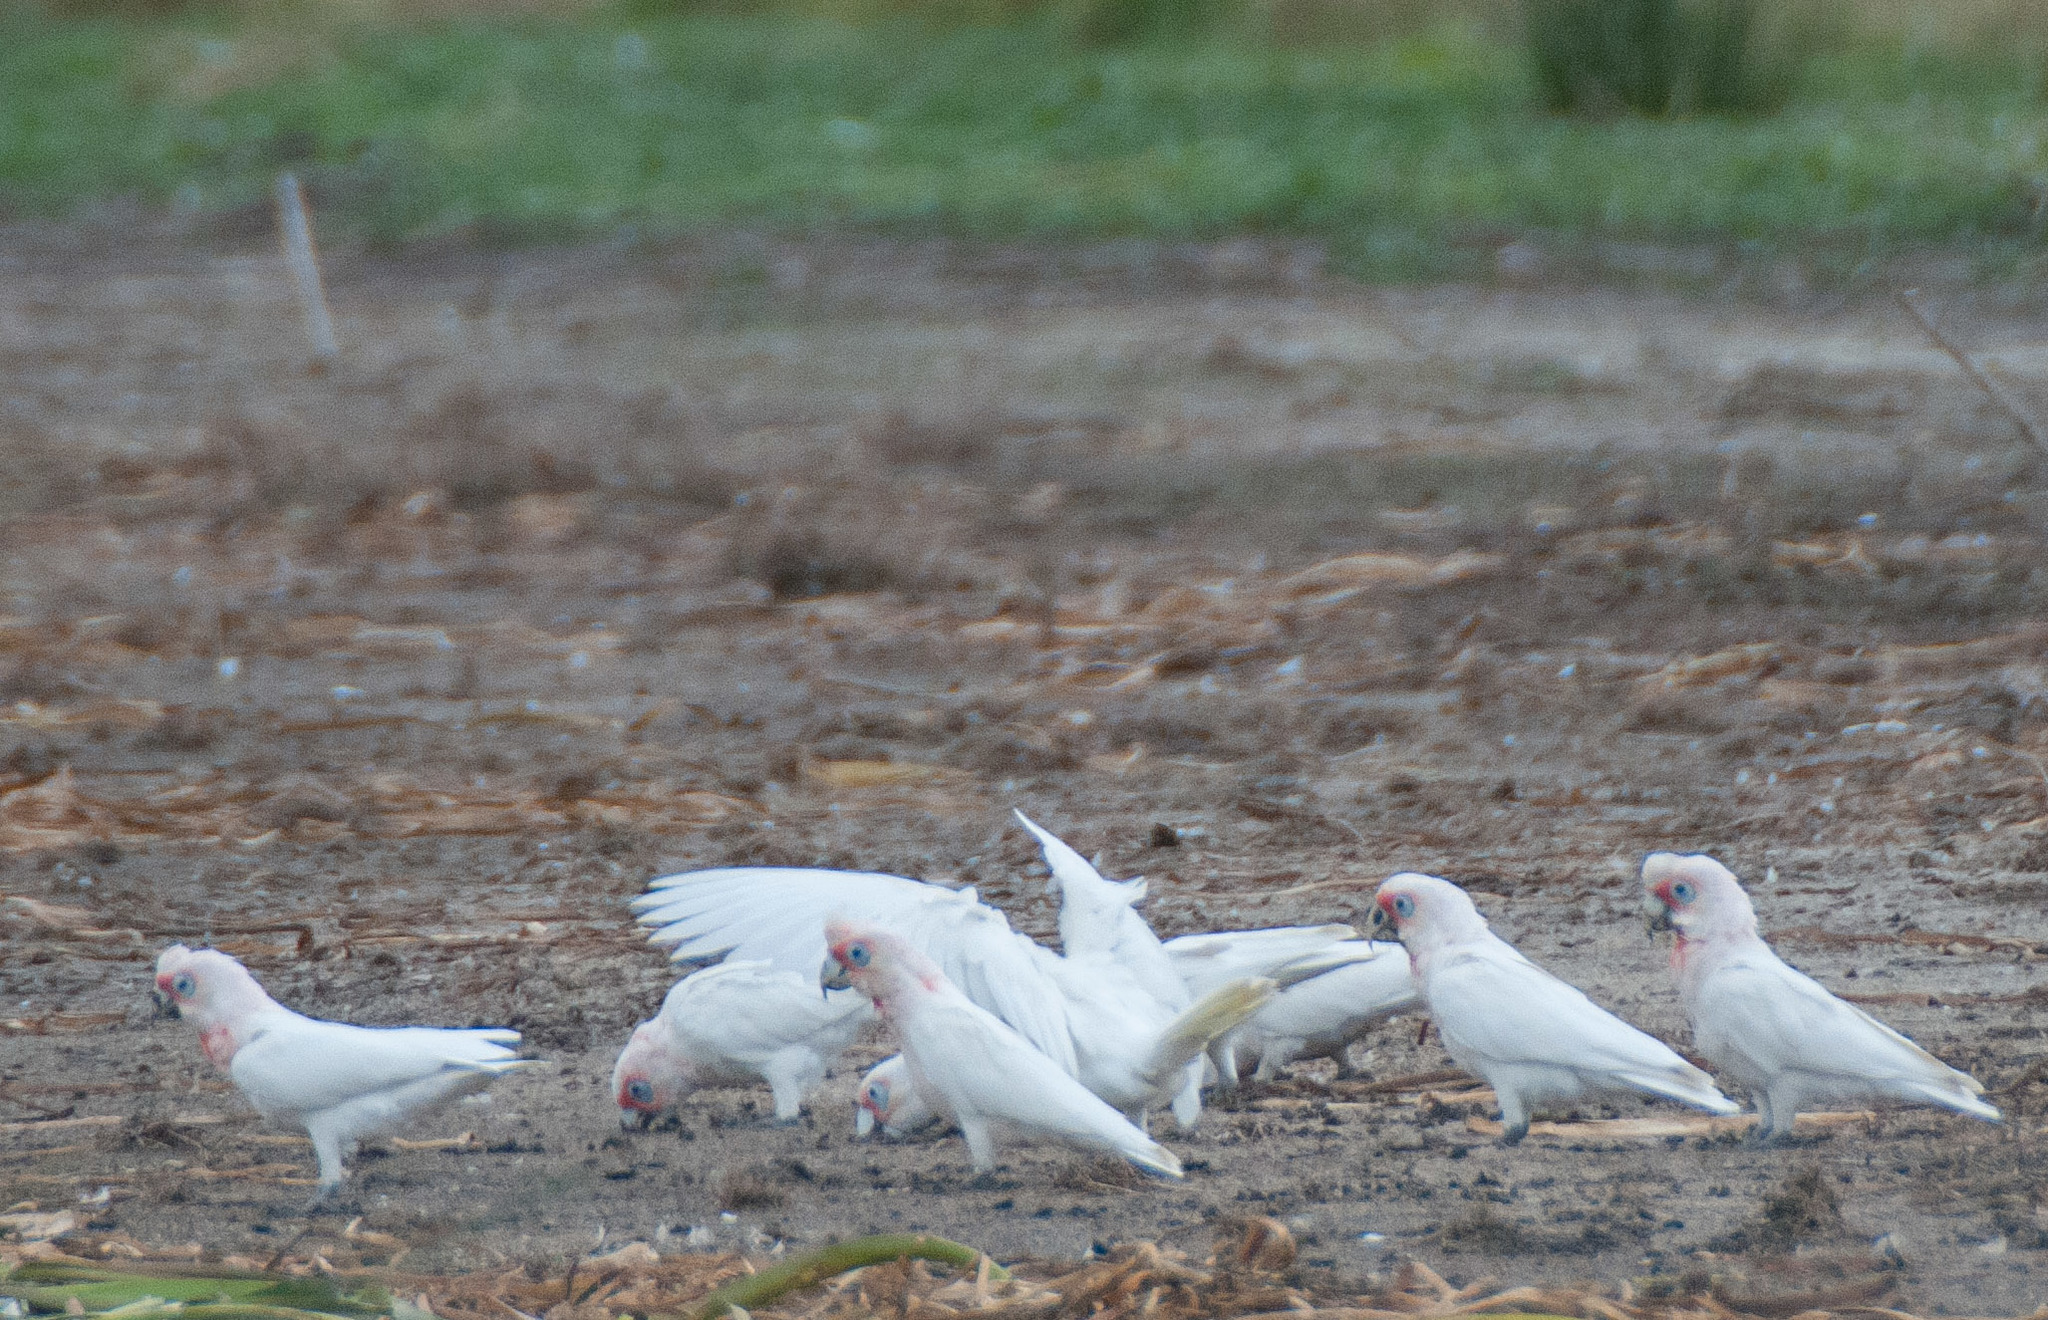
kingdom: Animalia
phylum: Chordata
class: Aves
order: Psittaciformes
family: Psittacidae
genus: Cacatua
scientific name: Cacatua tenuirostris
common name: Long-billed corella
